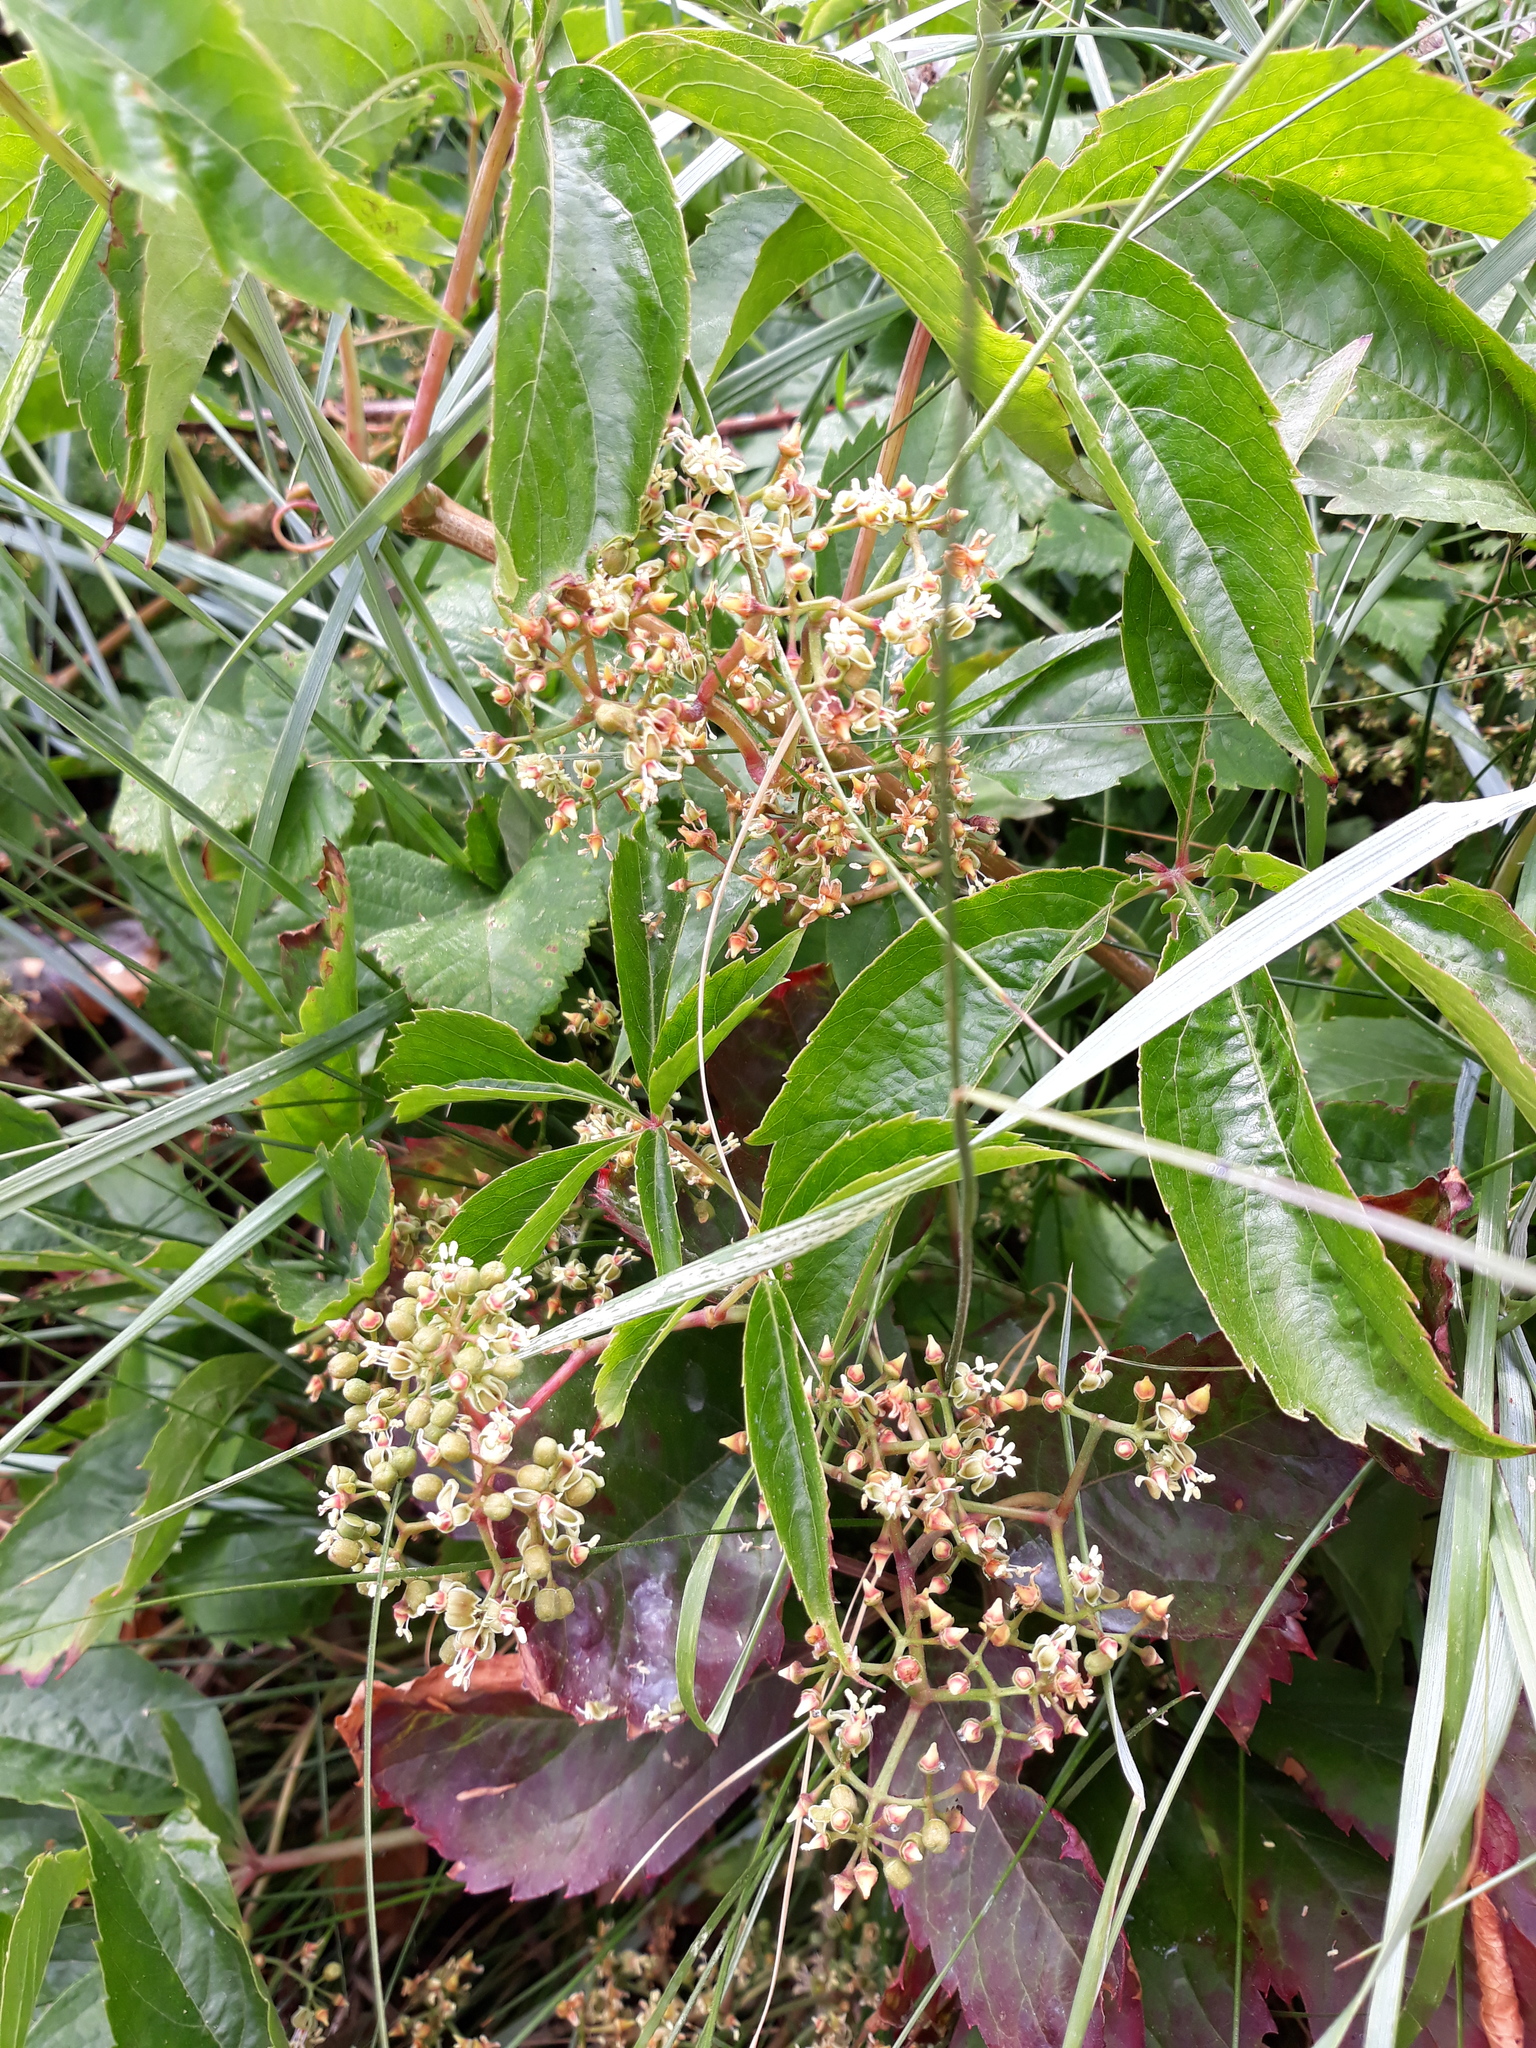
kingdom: Plantae
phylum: Tracheophyta
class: Magnoliopsida
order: Vitales
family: Vitaceae
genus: Parthenocissus
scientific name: Parthenocissus quinquefolia
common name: Virginia-creeper
